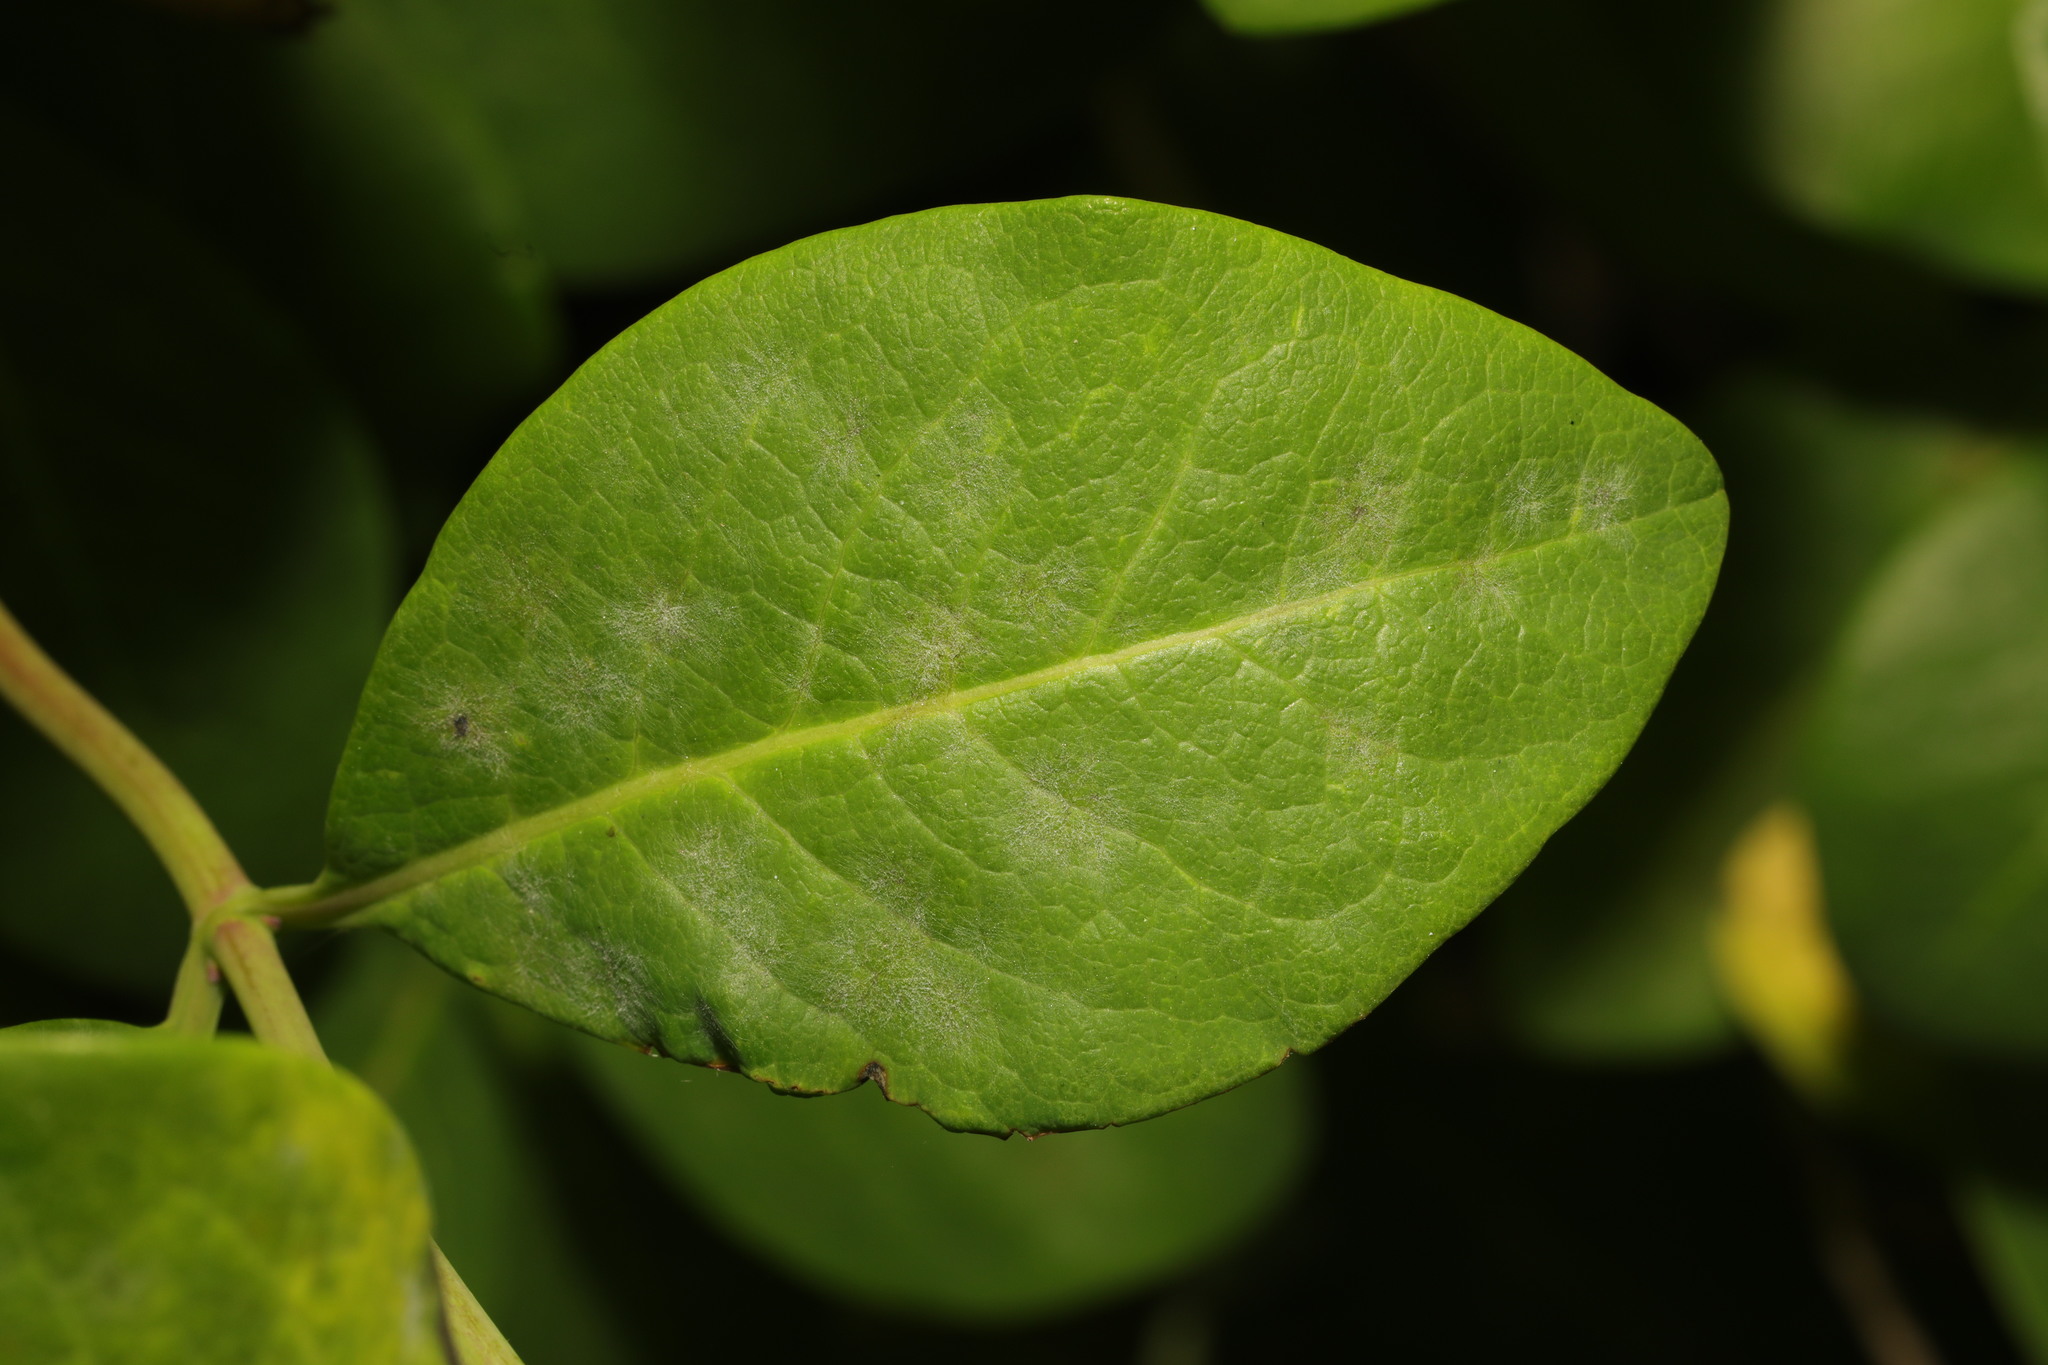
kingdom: Plantae
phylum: Tracheophyta
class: Magnoliopsida
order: Dipsacales
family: Caprifoliaceae
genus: Lonicera
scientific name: Lonicera periclymenum
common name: European honeysuckle
